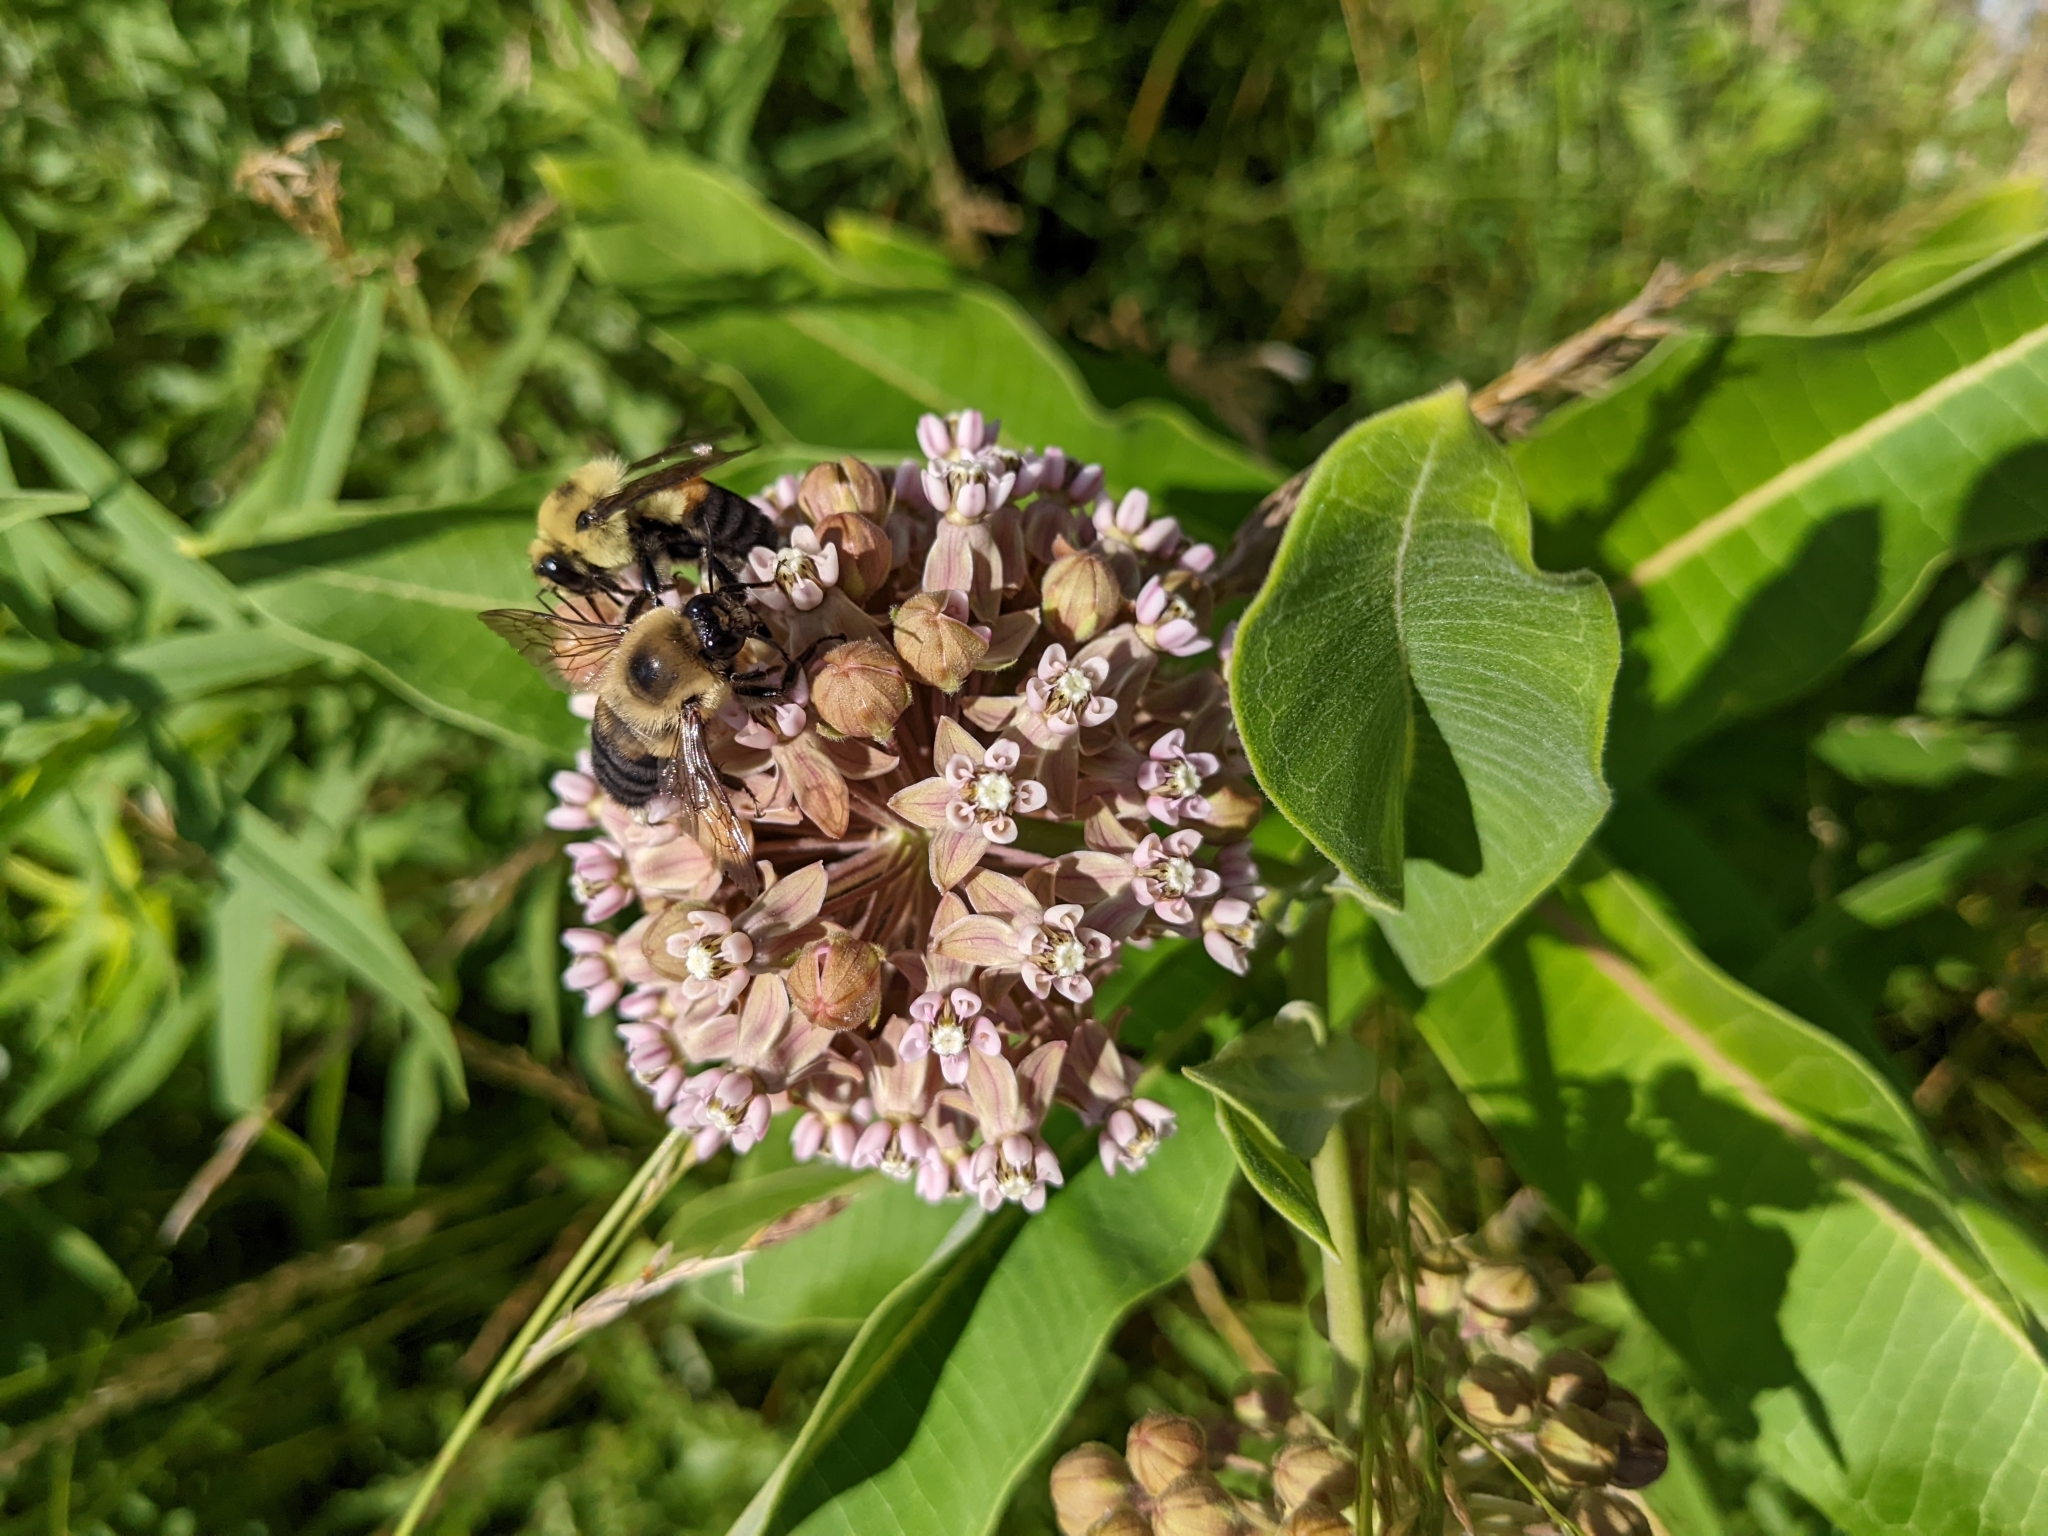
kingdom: Plantae
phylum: Tracheophyta
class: Magnoliopsida
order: Gentianales
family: Apocynaceae
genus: Asclepias
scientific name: Asclepias syriaca
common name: Common milkweed
